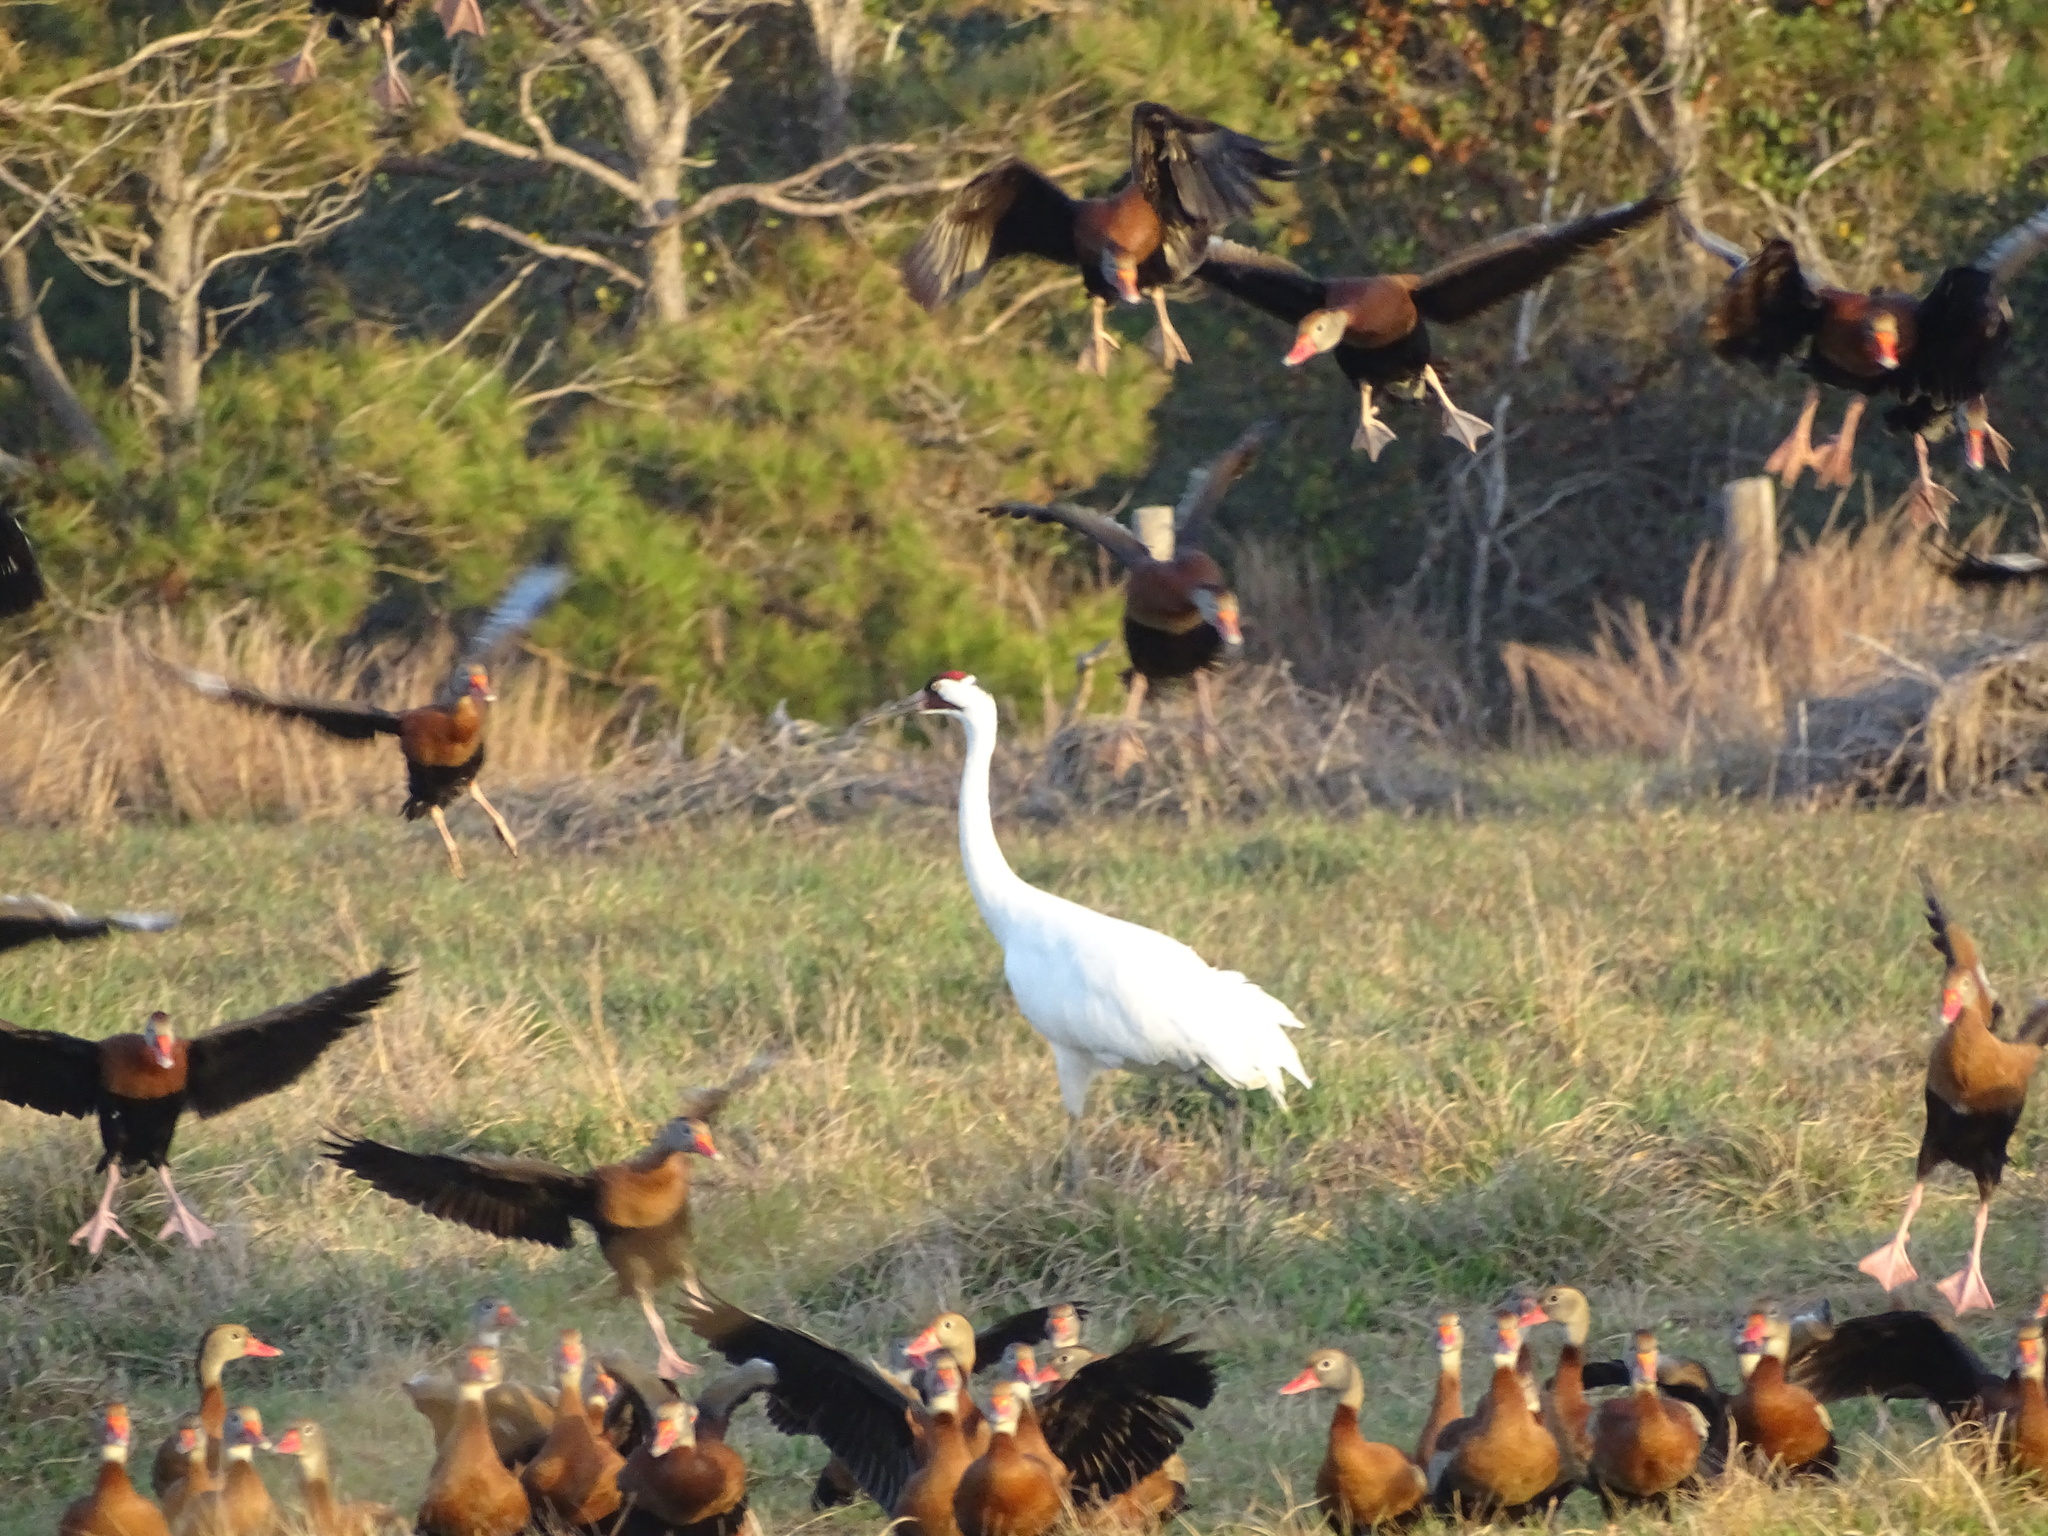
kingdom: Animalia
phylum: Chordata
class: Aves
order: Anseriformes
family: Anatidae
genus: Dendrocygna
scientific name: Dendrocygna autumnalis
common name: Black-bellied whistling duck
